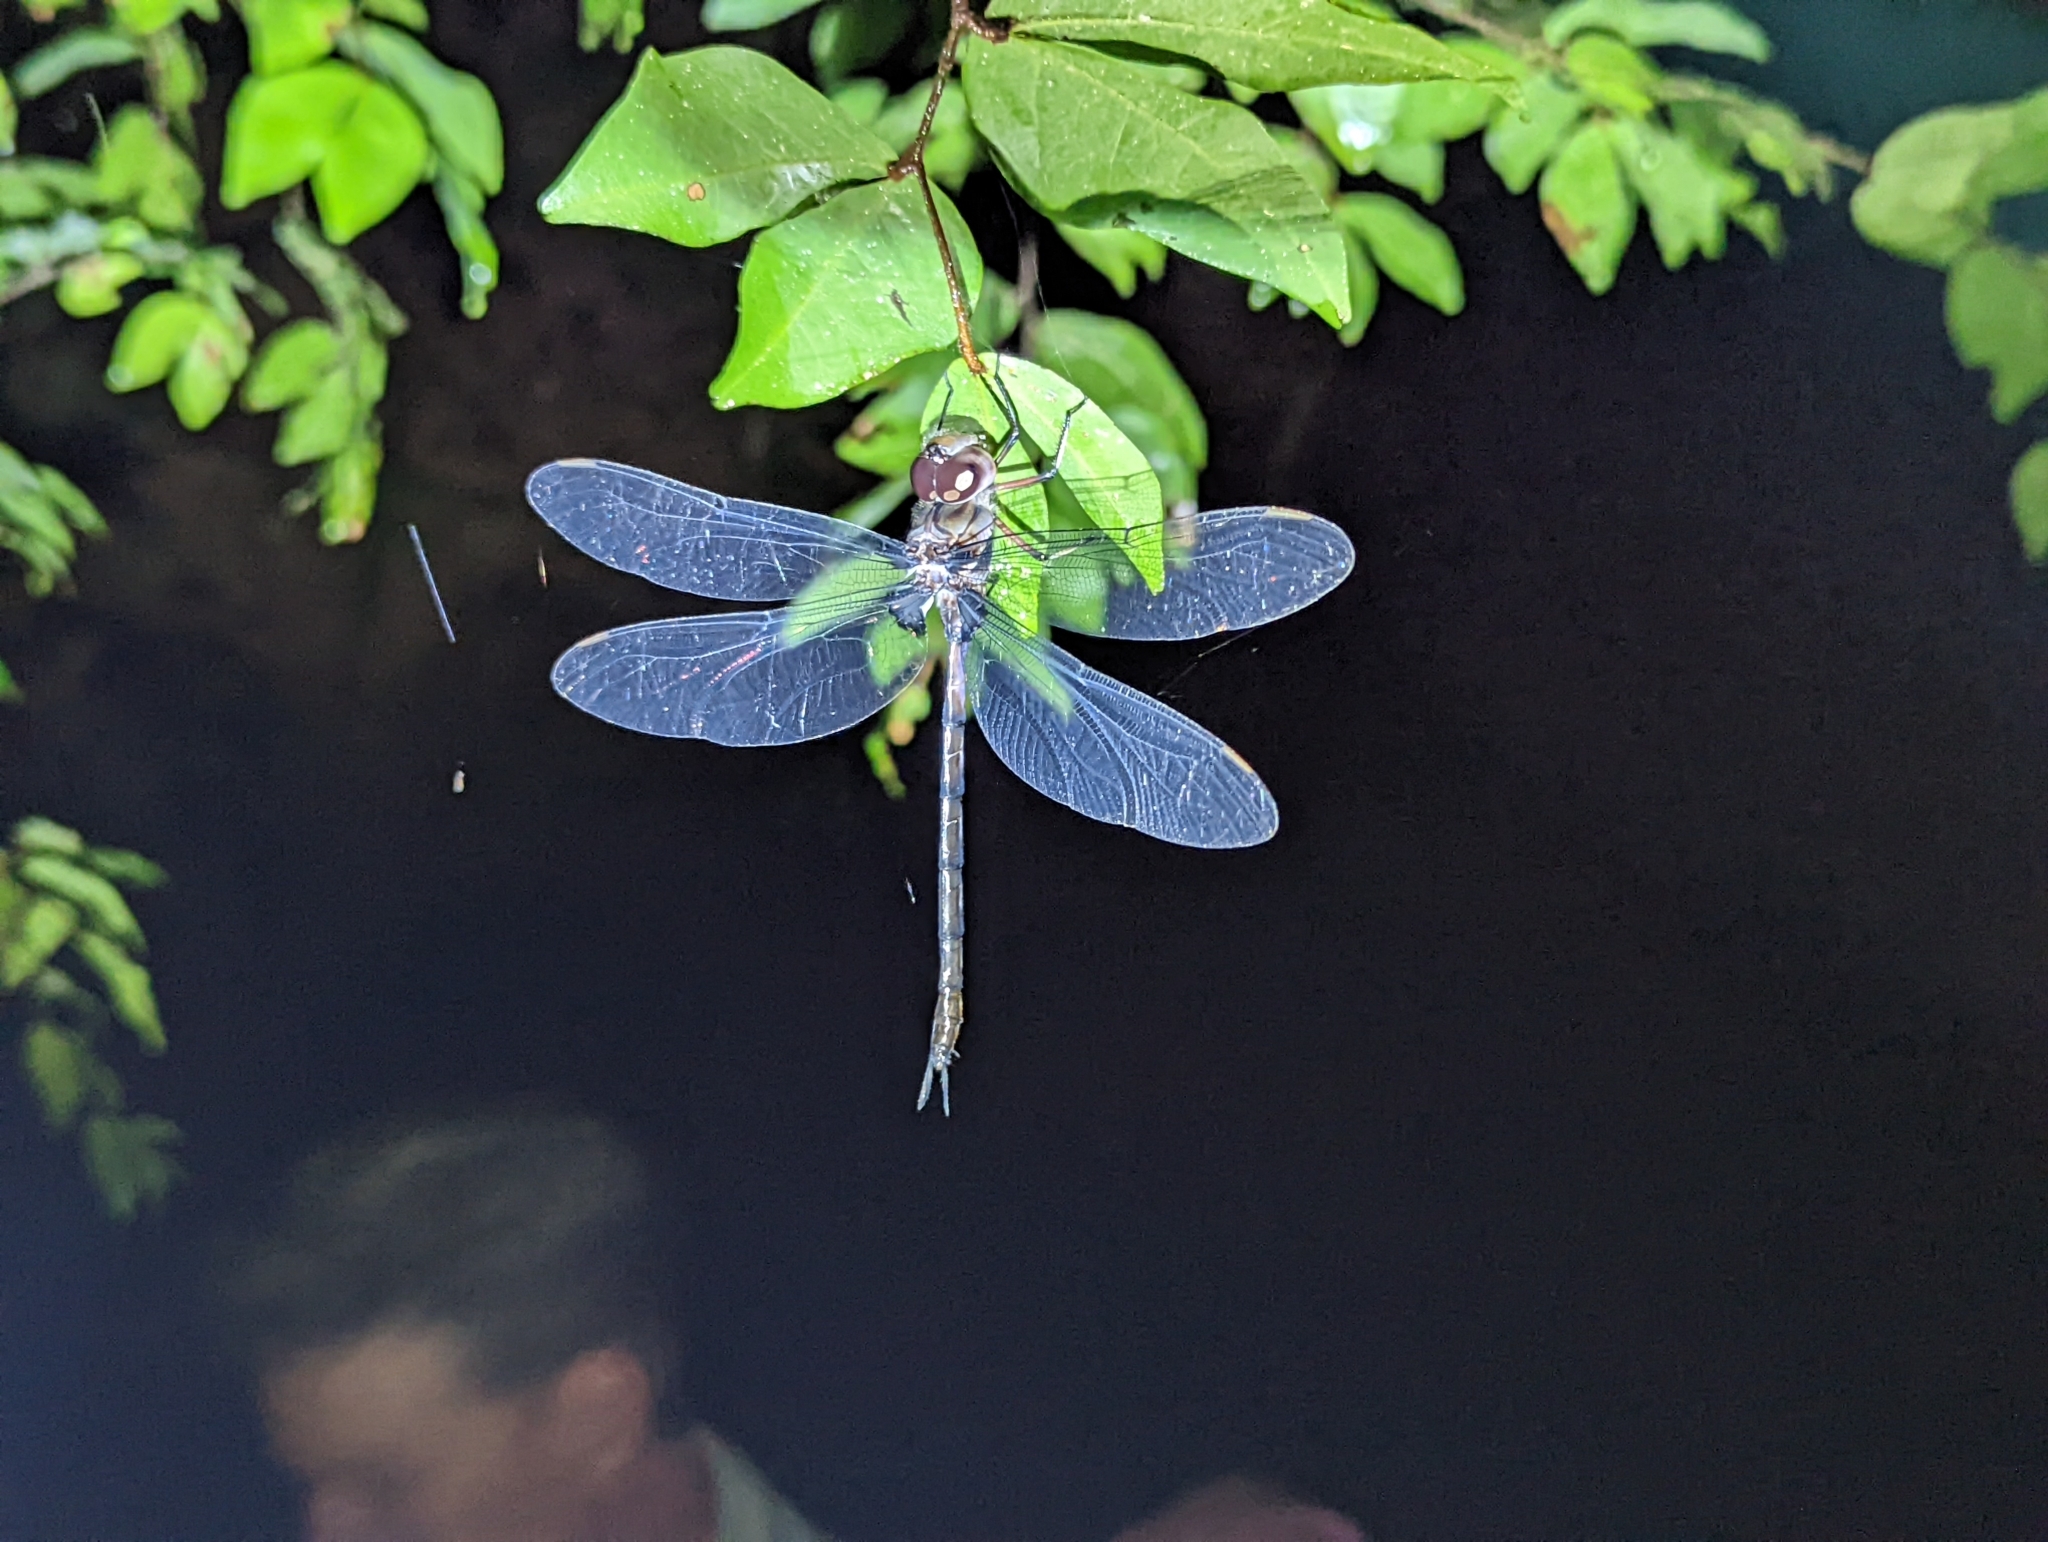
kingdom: Animalia
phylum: Arthropoda
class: Insecta
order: Odonata
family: Aeshnidae
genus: Gynacantha
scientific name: Gynacantha membranalis
